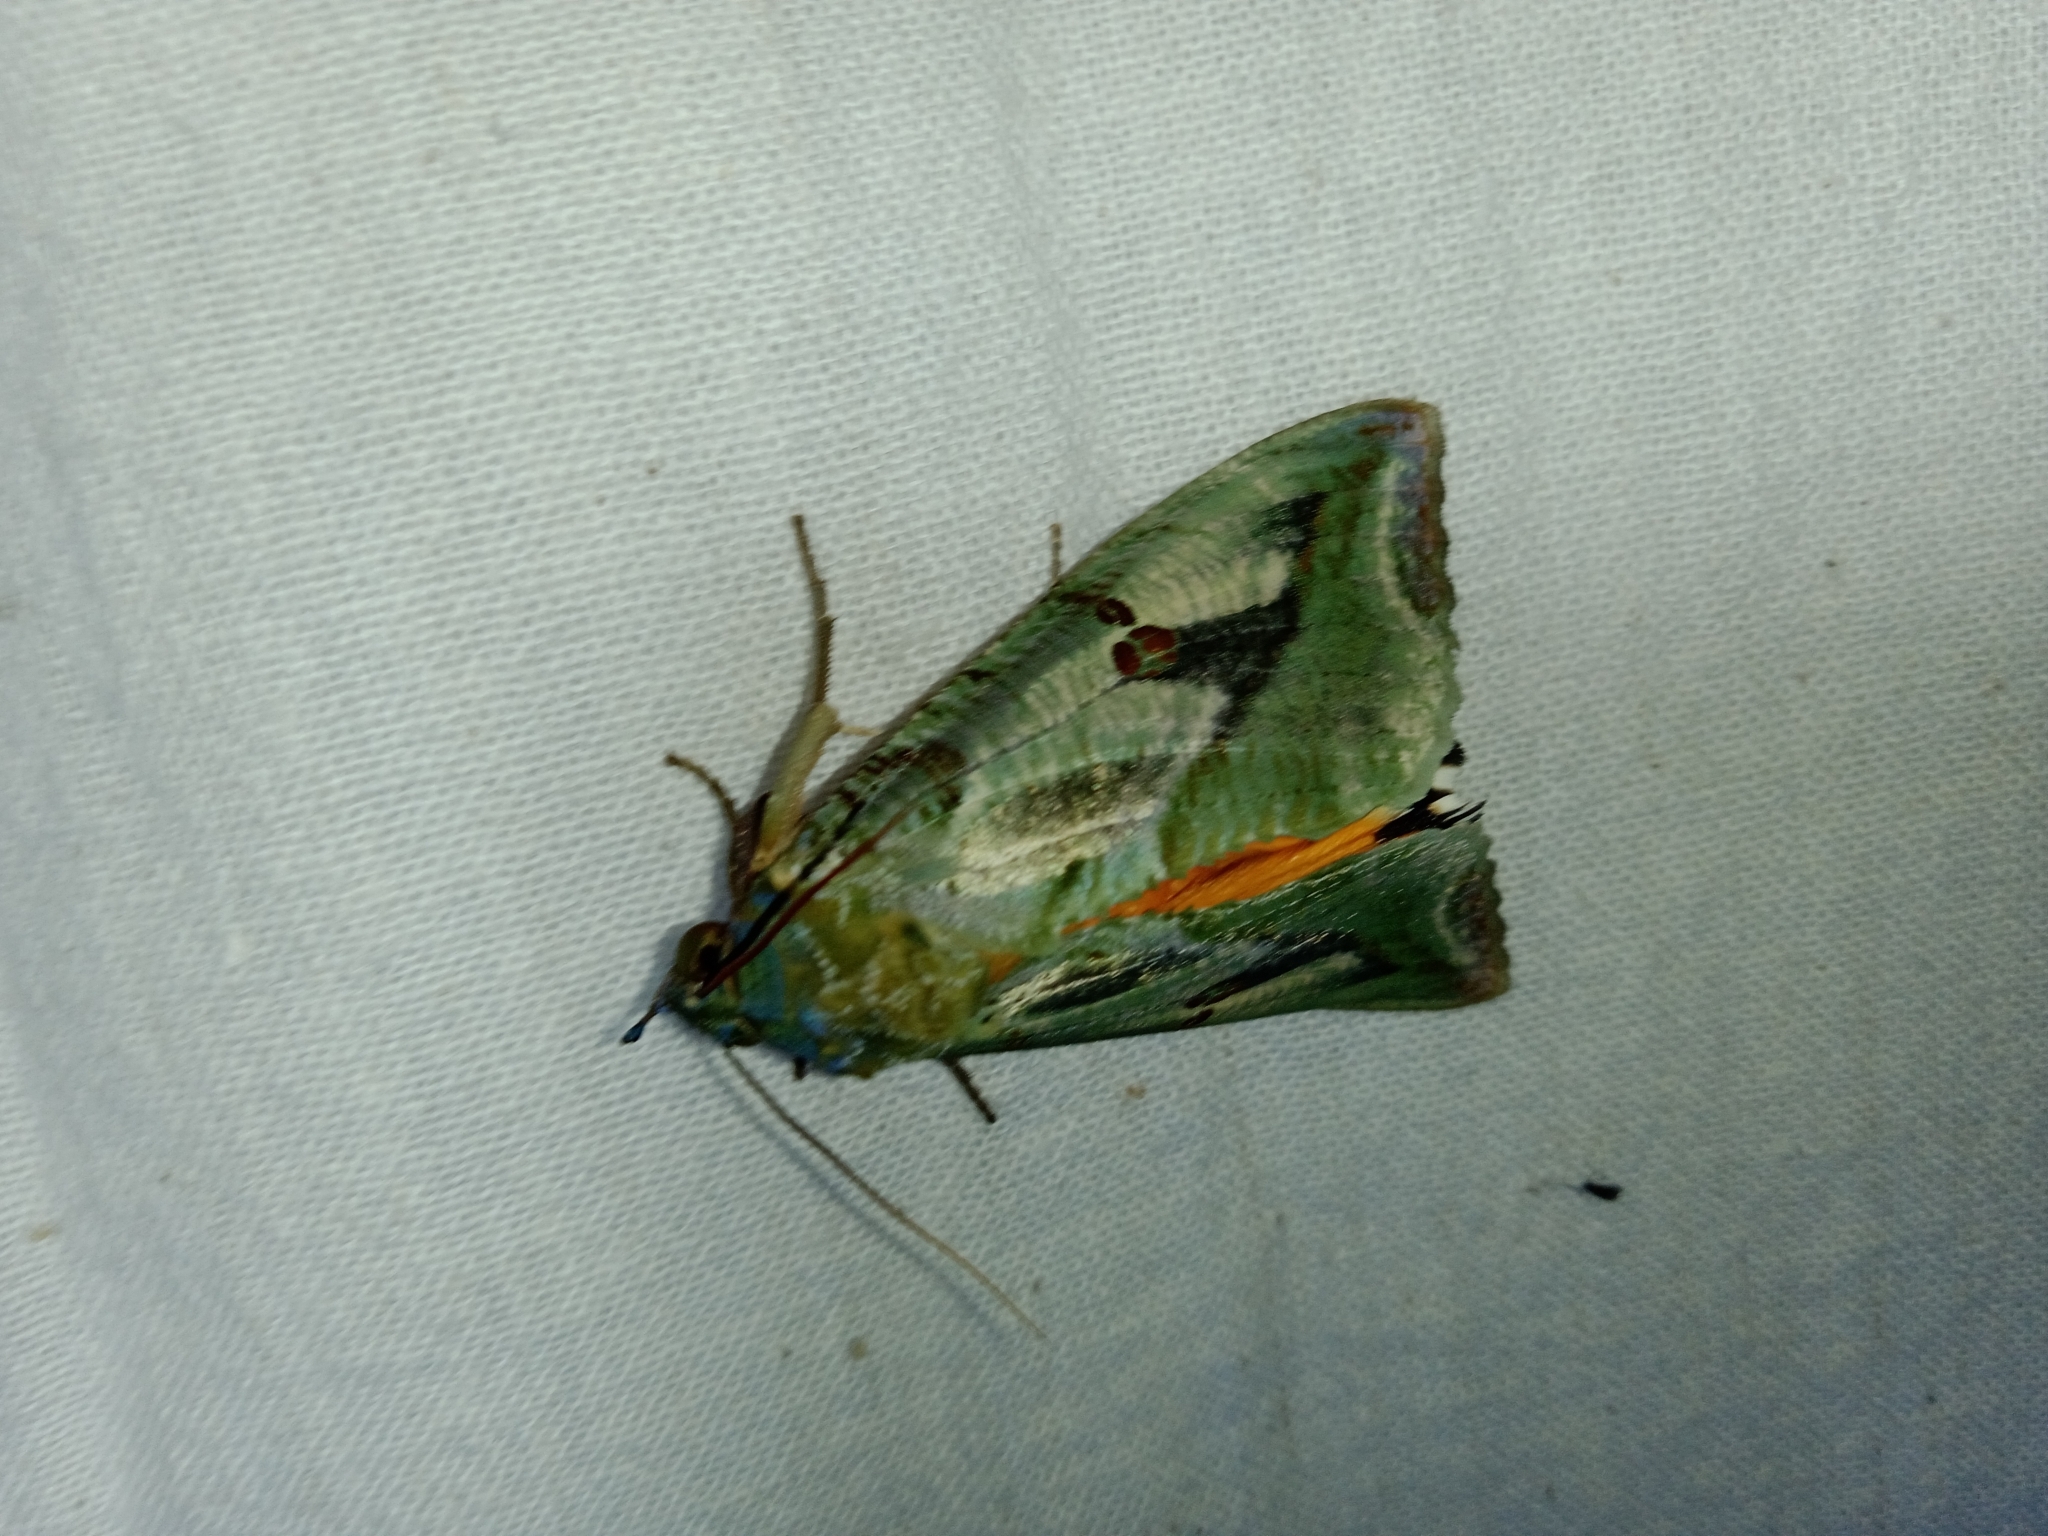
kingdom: Animalia
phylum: Arthropoda
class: Insecta
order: Lepidoptera
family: Erebidae
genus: Eudocima
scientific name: Eudocima materna
